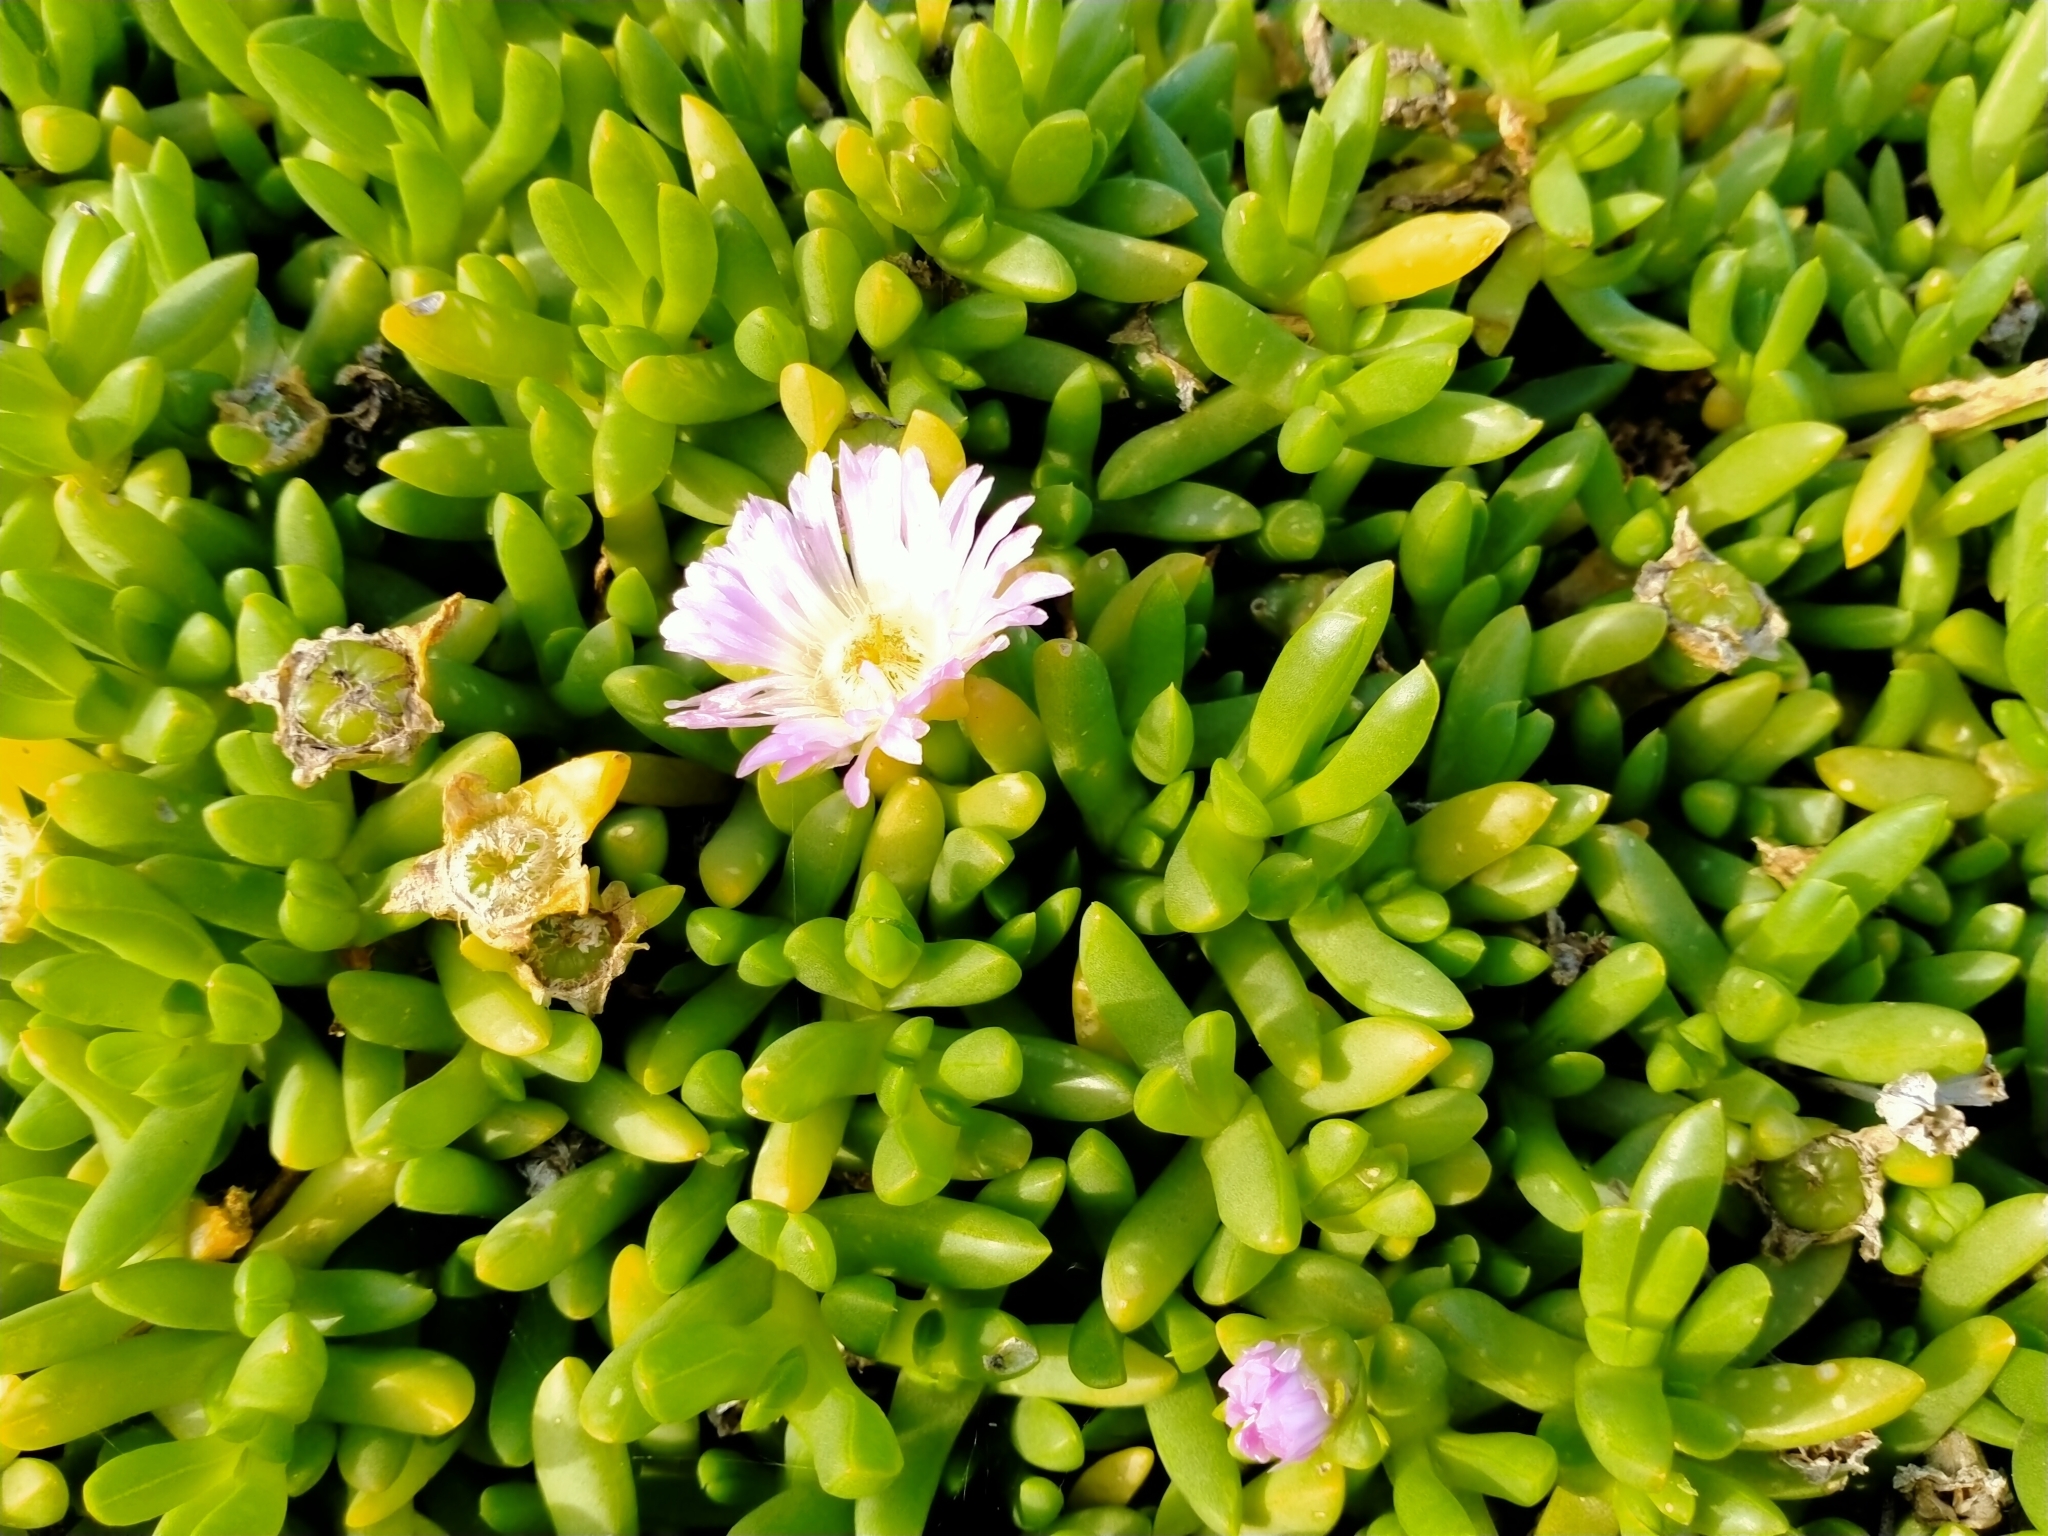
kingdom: Plantae
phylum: Tracheophyta
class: Magnoliopsida
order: Caryophyllales
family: Aizoaceae
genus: Disphyma
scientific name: Disphyma australe
